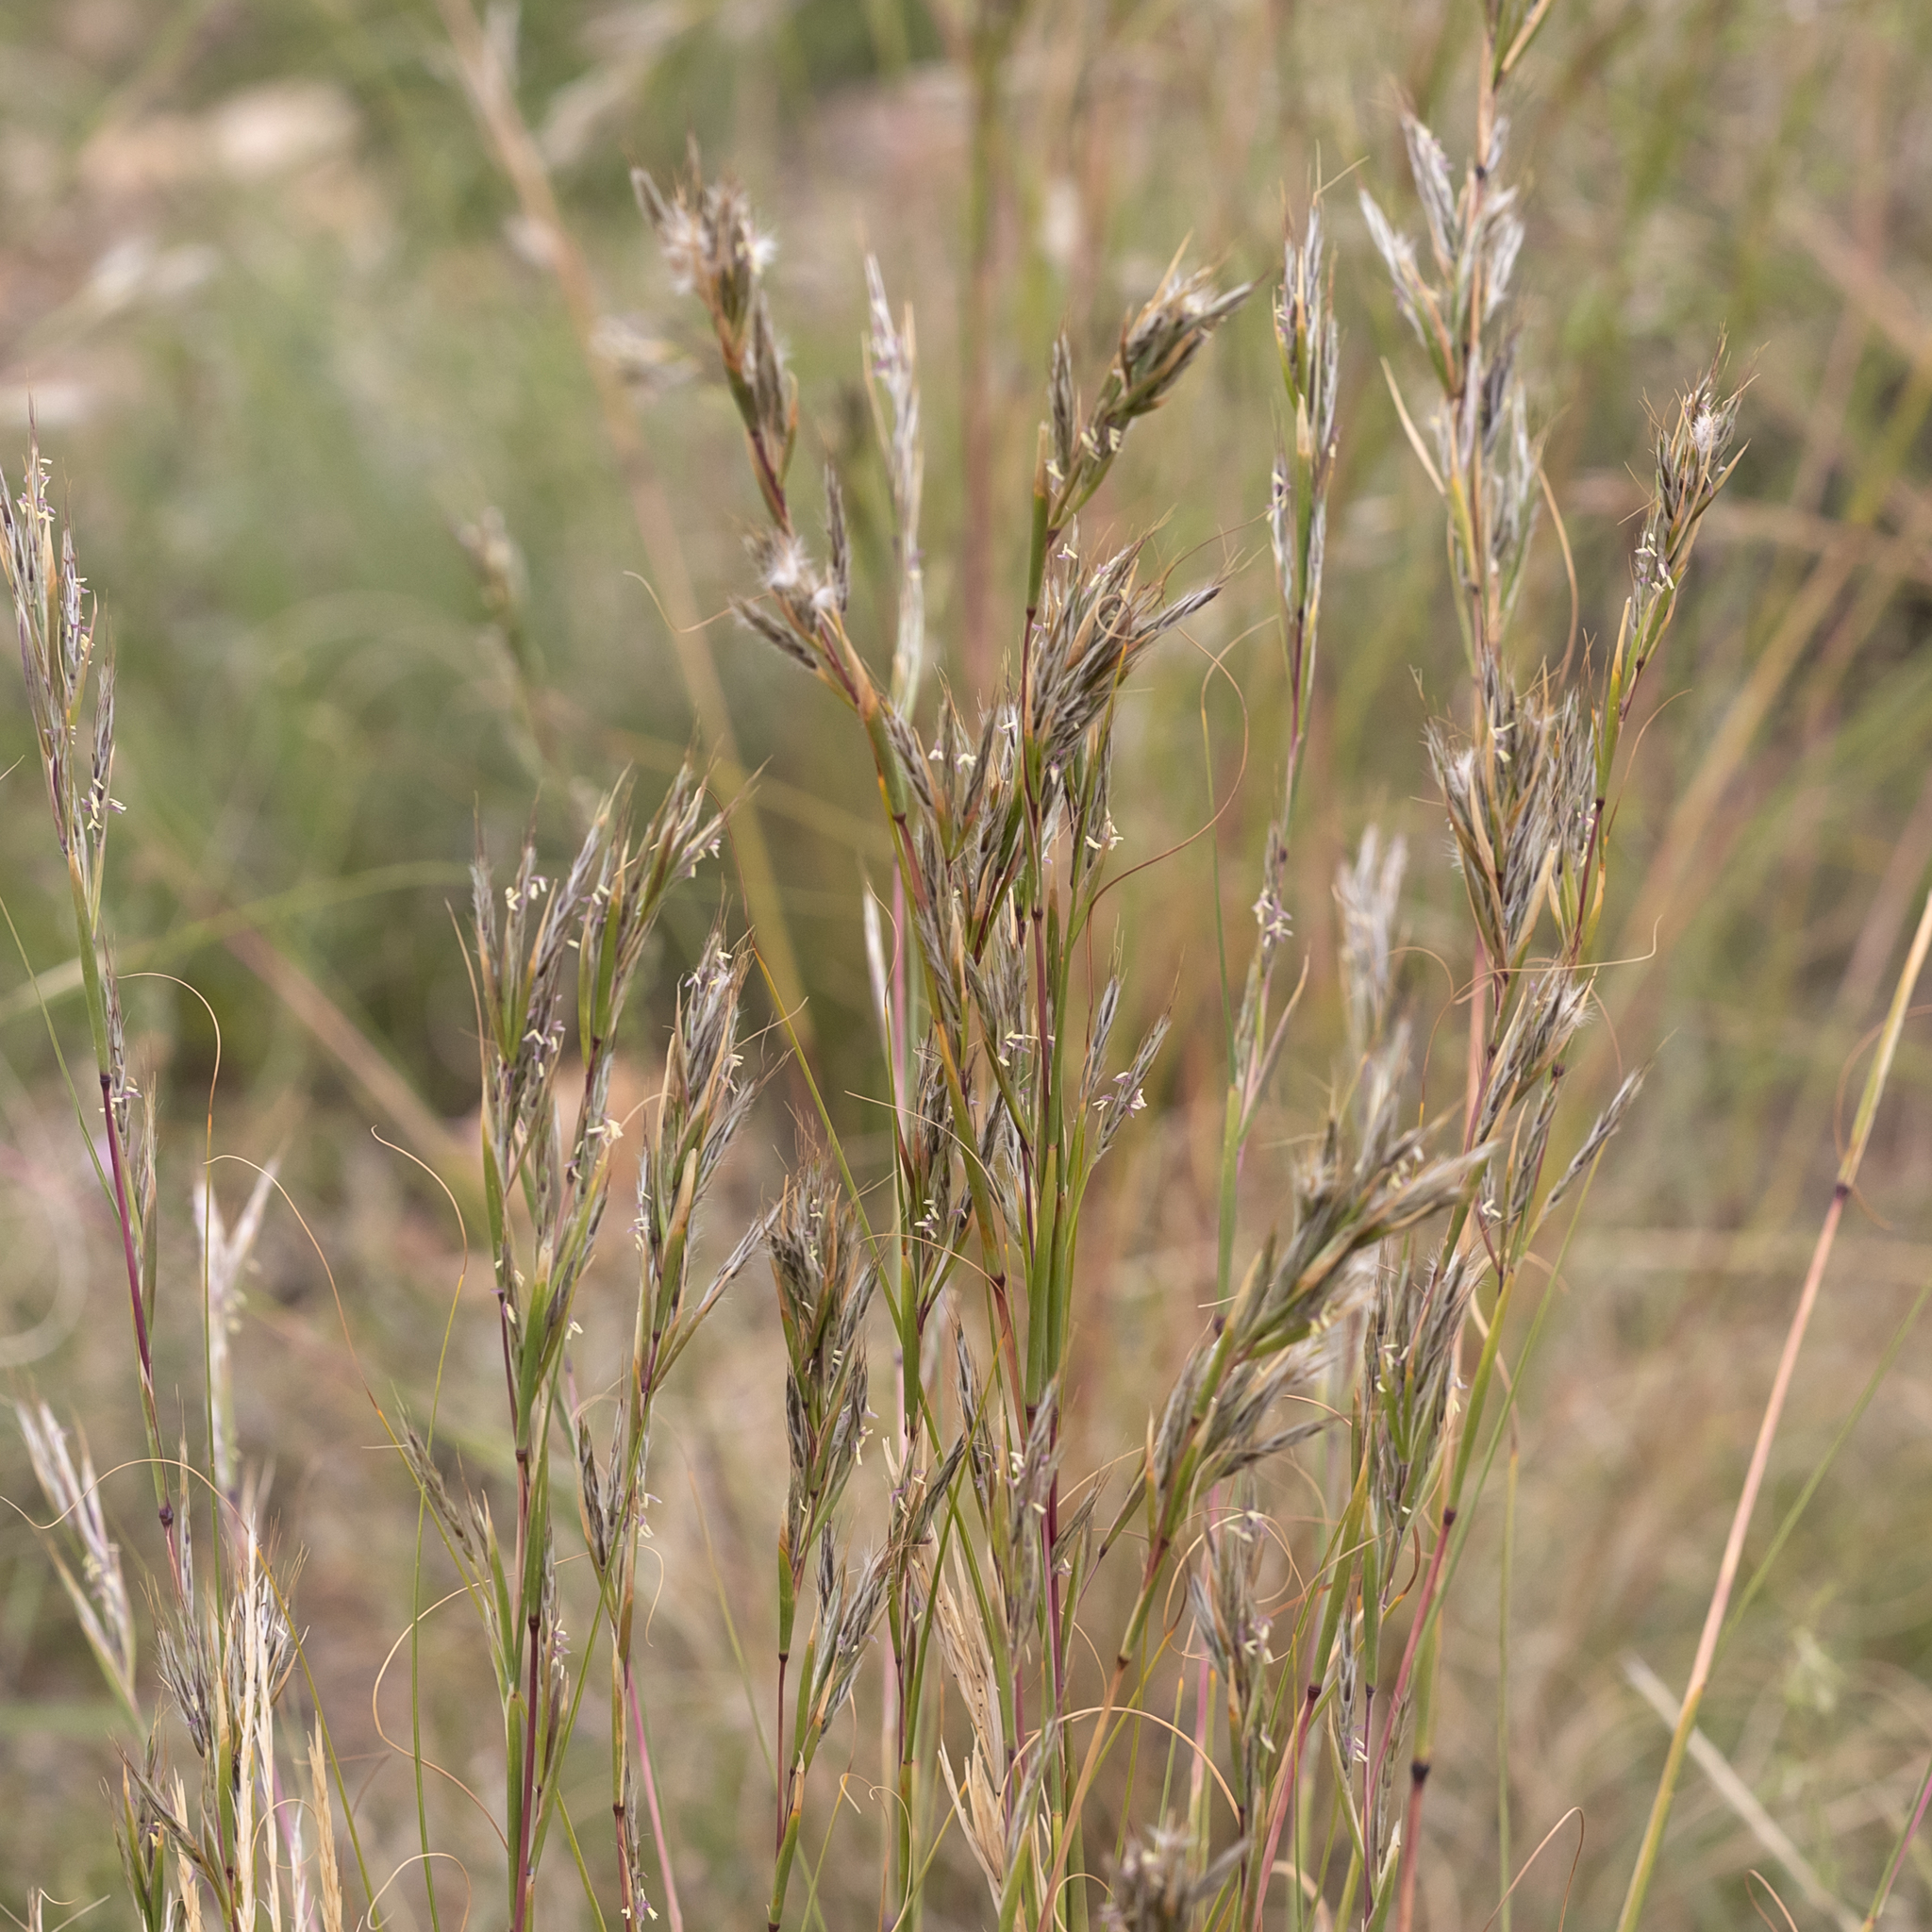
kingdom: Plantae
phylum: Tracheophyta
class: Liliopsida
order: Poales
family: Poaceae
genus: Cymbopogon
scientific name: Cymbopogon ambiguus
